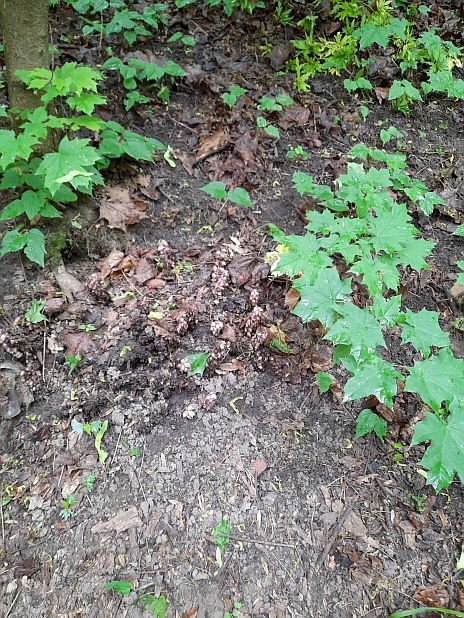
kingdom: Plantae
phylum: Tracheophyta
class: Magnoliopsida
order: Sapindales
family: Sapindaceae
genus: Acer
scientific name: Acer platanoides
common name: Norway maple
